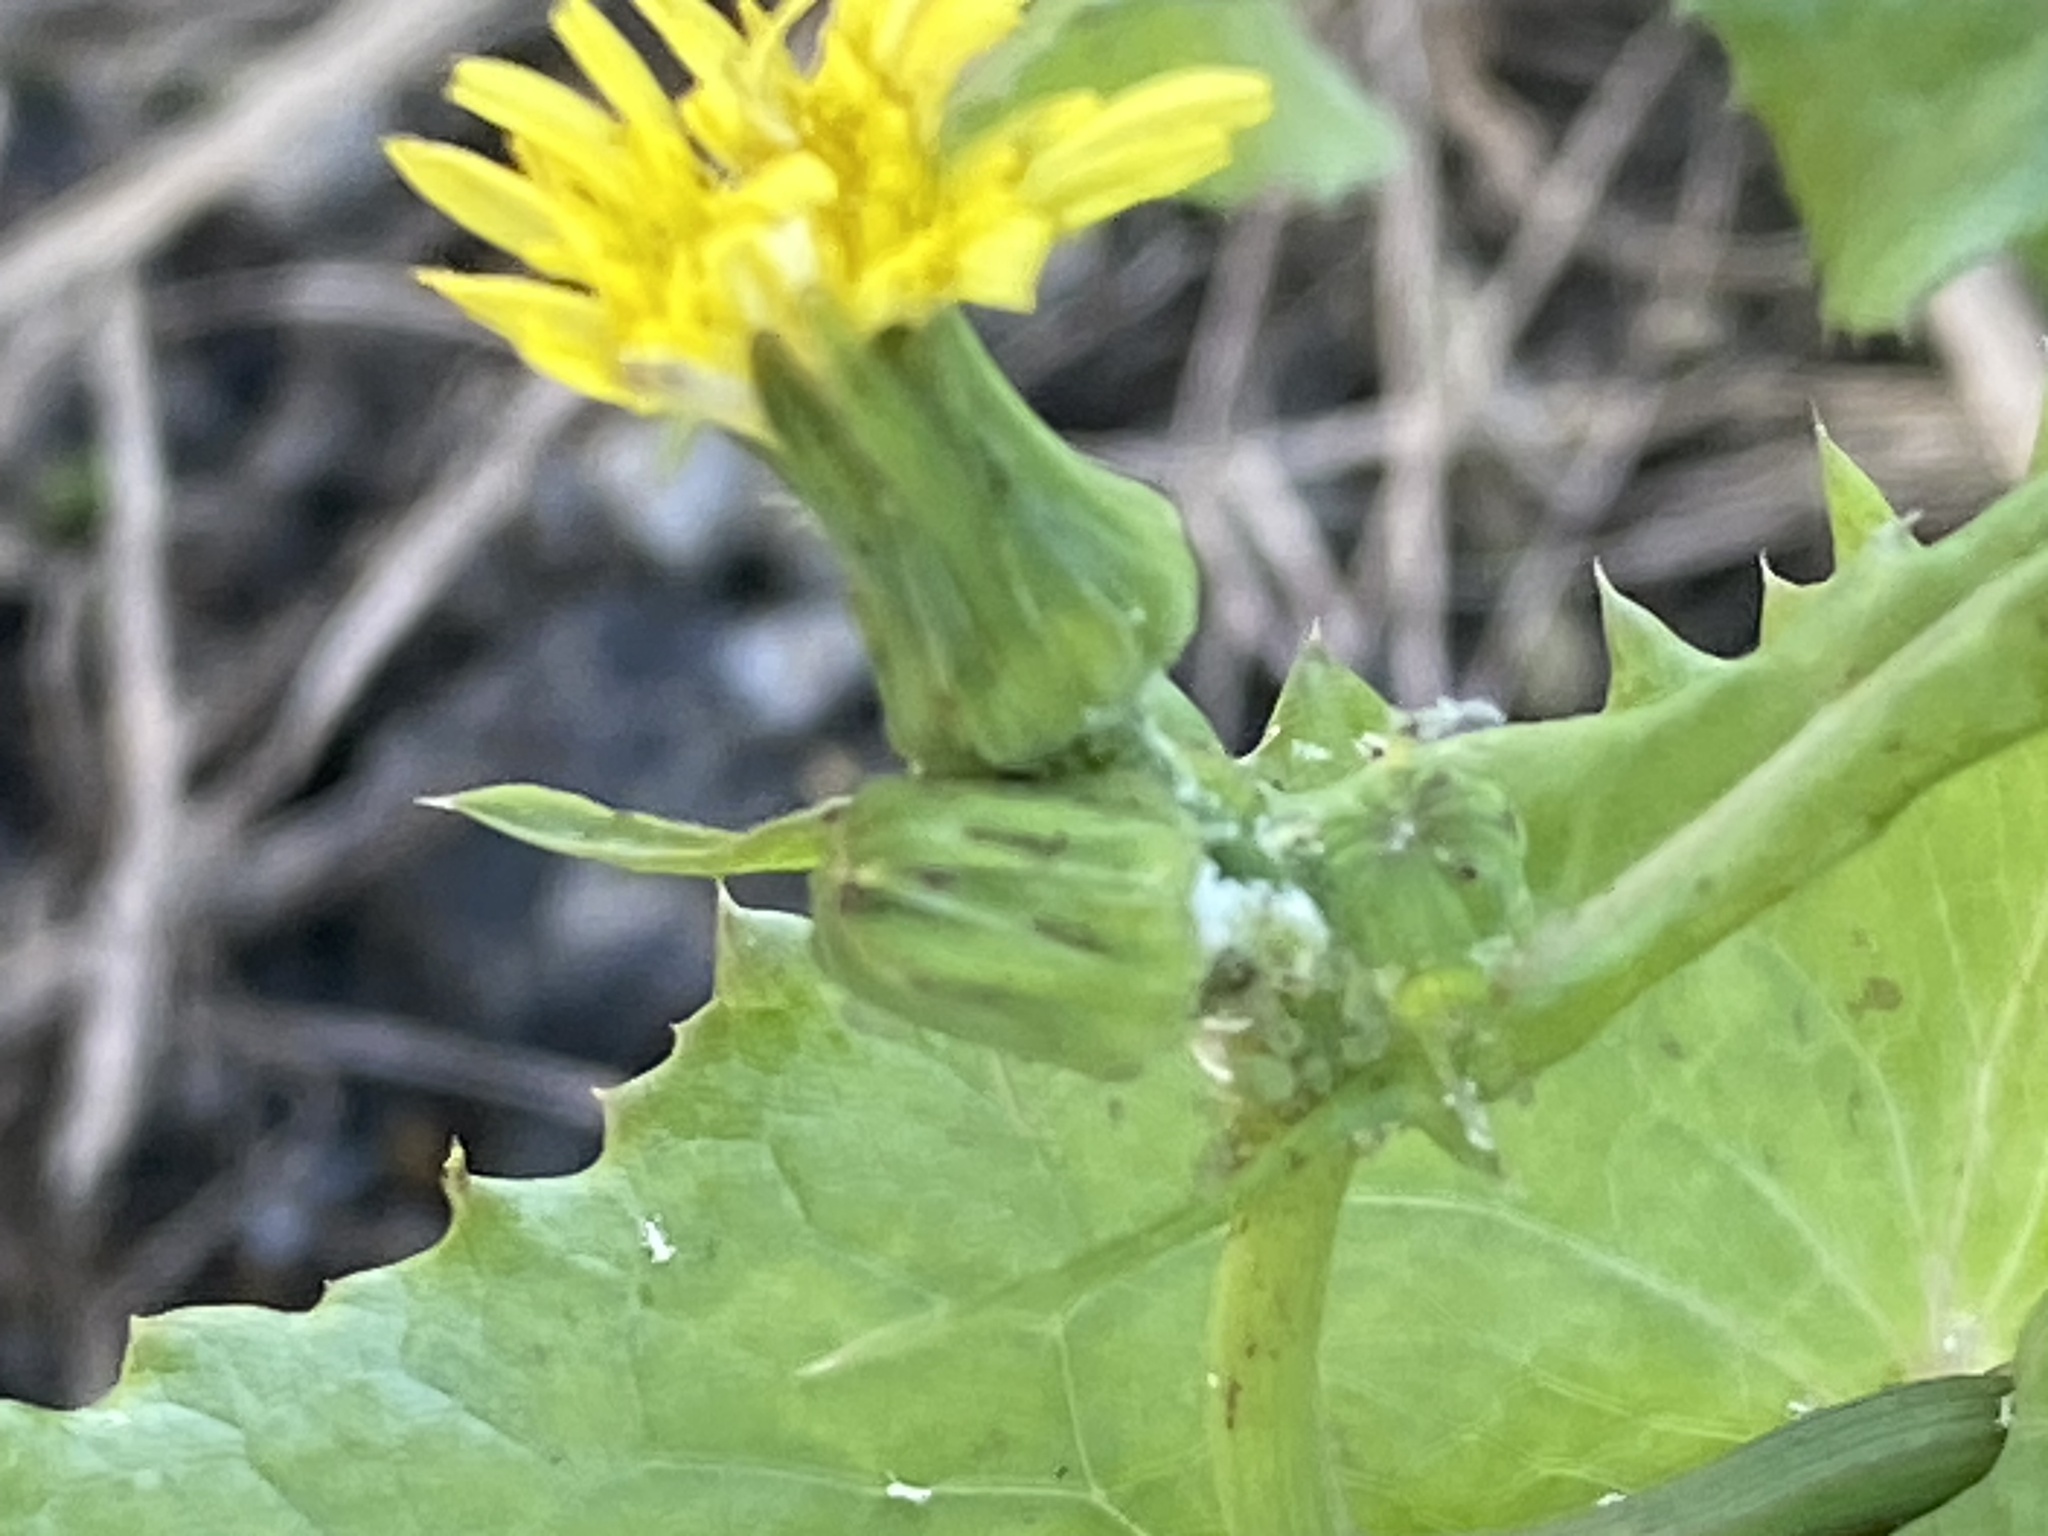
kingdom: Plantae
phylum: Tracheophyta
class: Magnoliopsida
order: Asterales
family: Asteraceae
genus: Sonchus
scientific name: Sonchus oleraceus
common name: Common sowthistle
